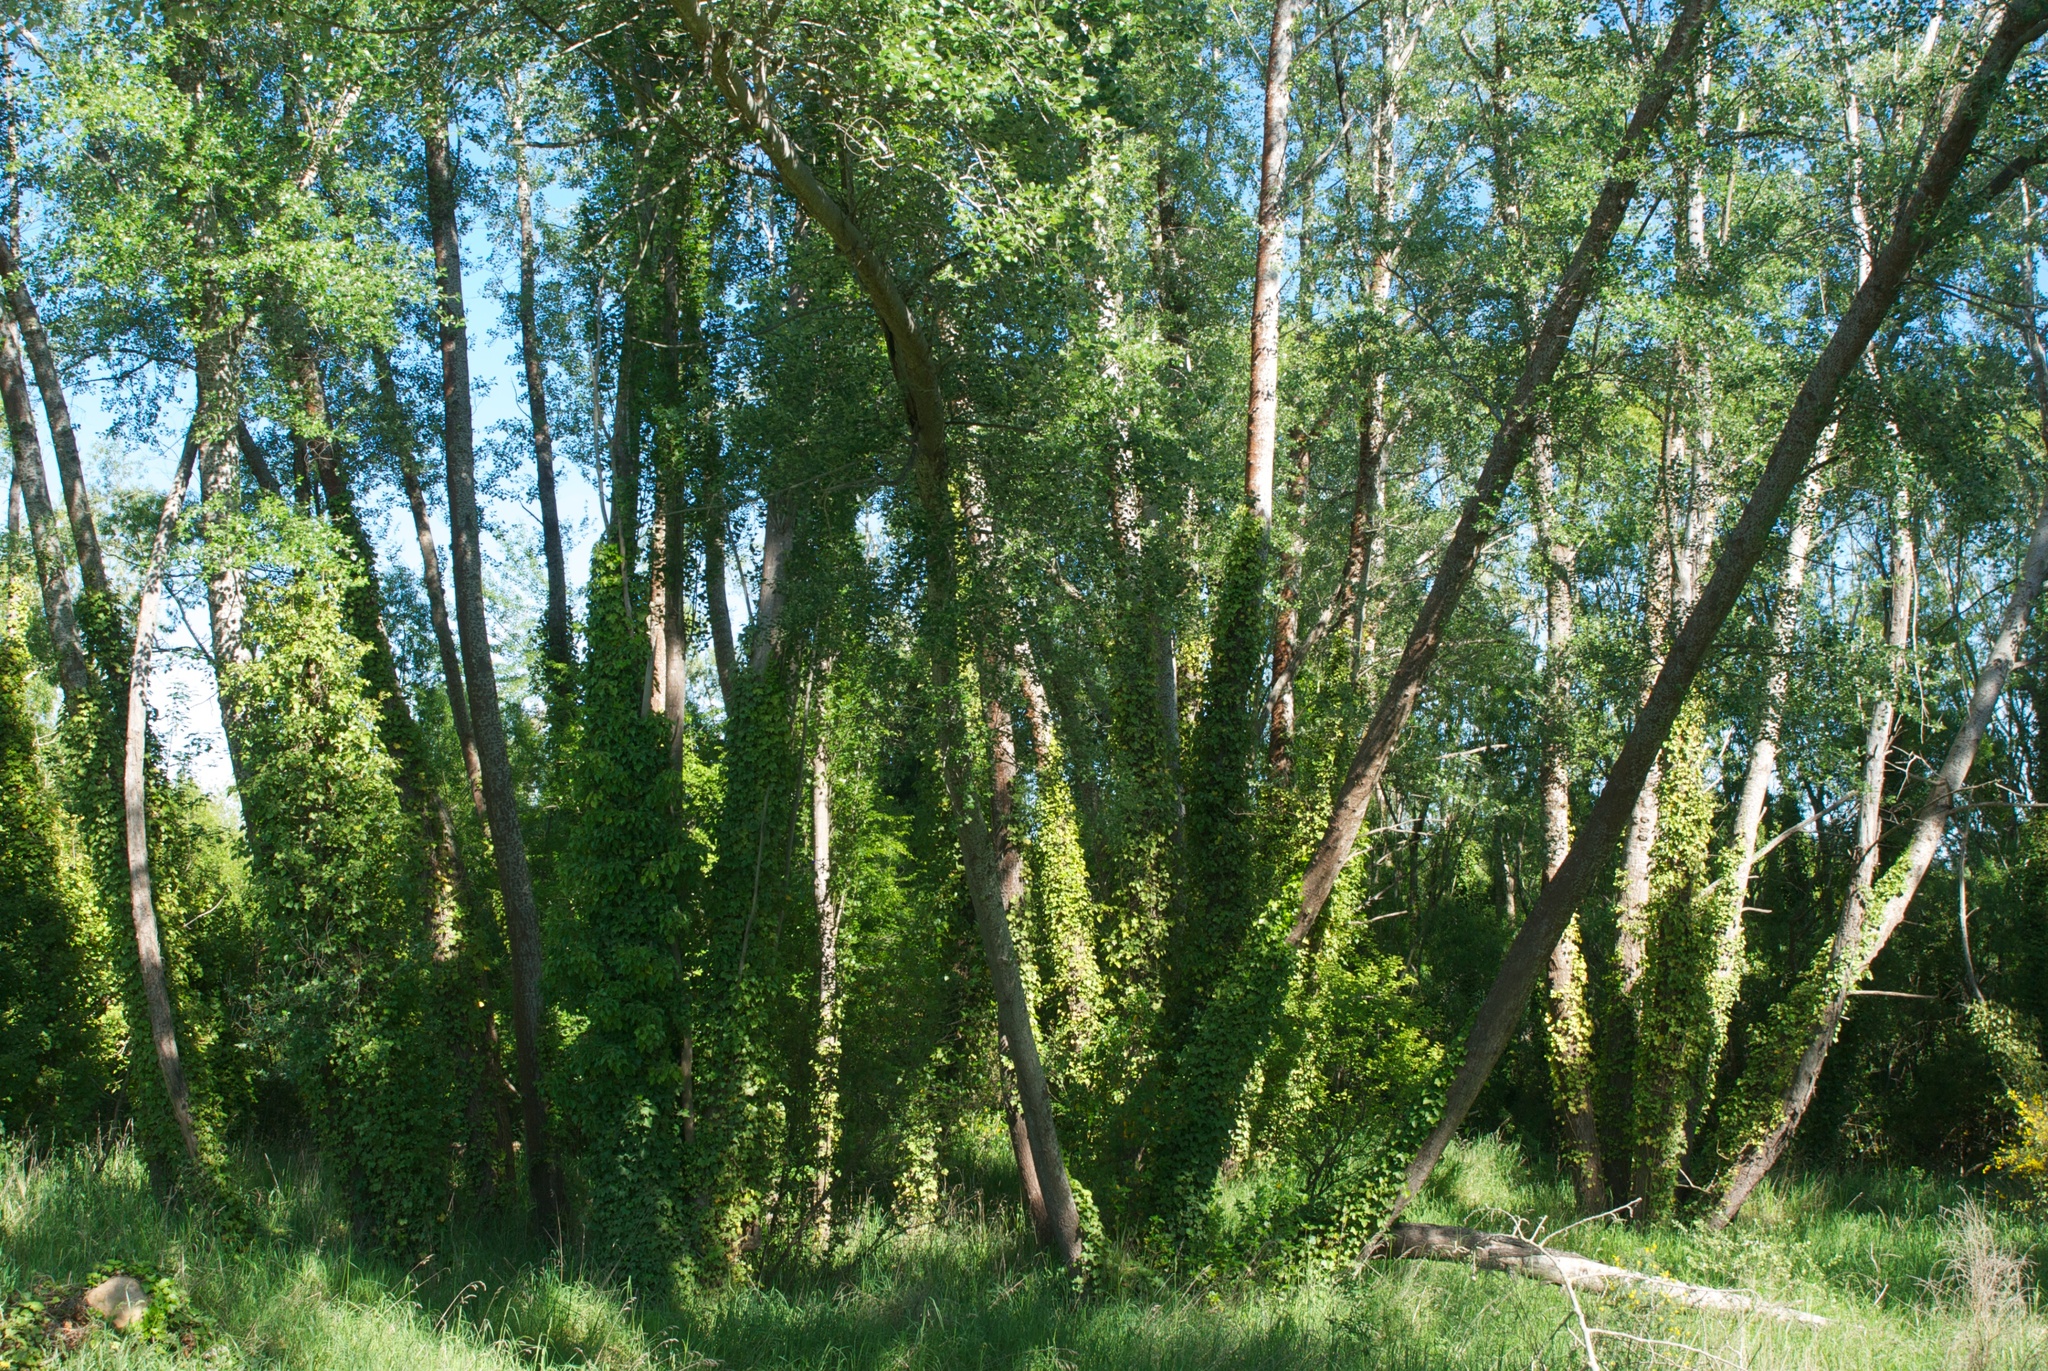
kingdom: Plantae
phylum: Tracheophyta
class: Magnoliopsida
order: Apiales
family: Araliaceae
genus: Hedera
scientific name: Hedera helix
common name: Ivy
